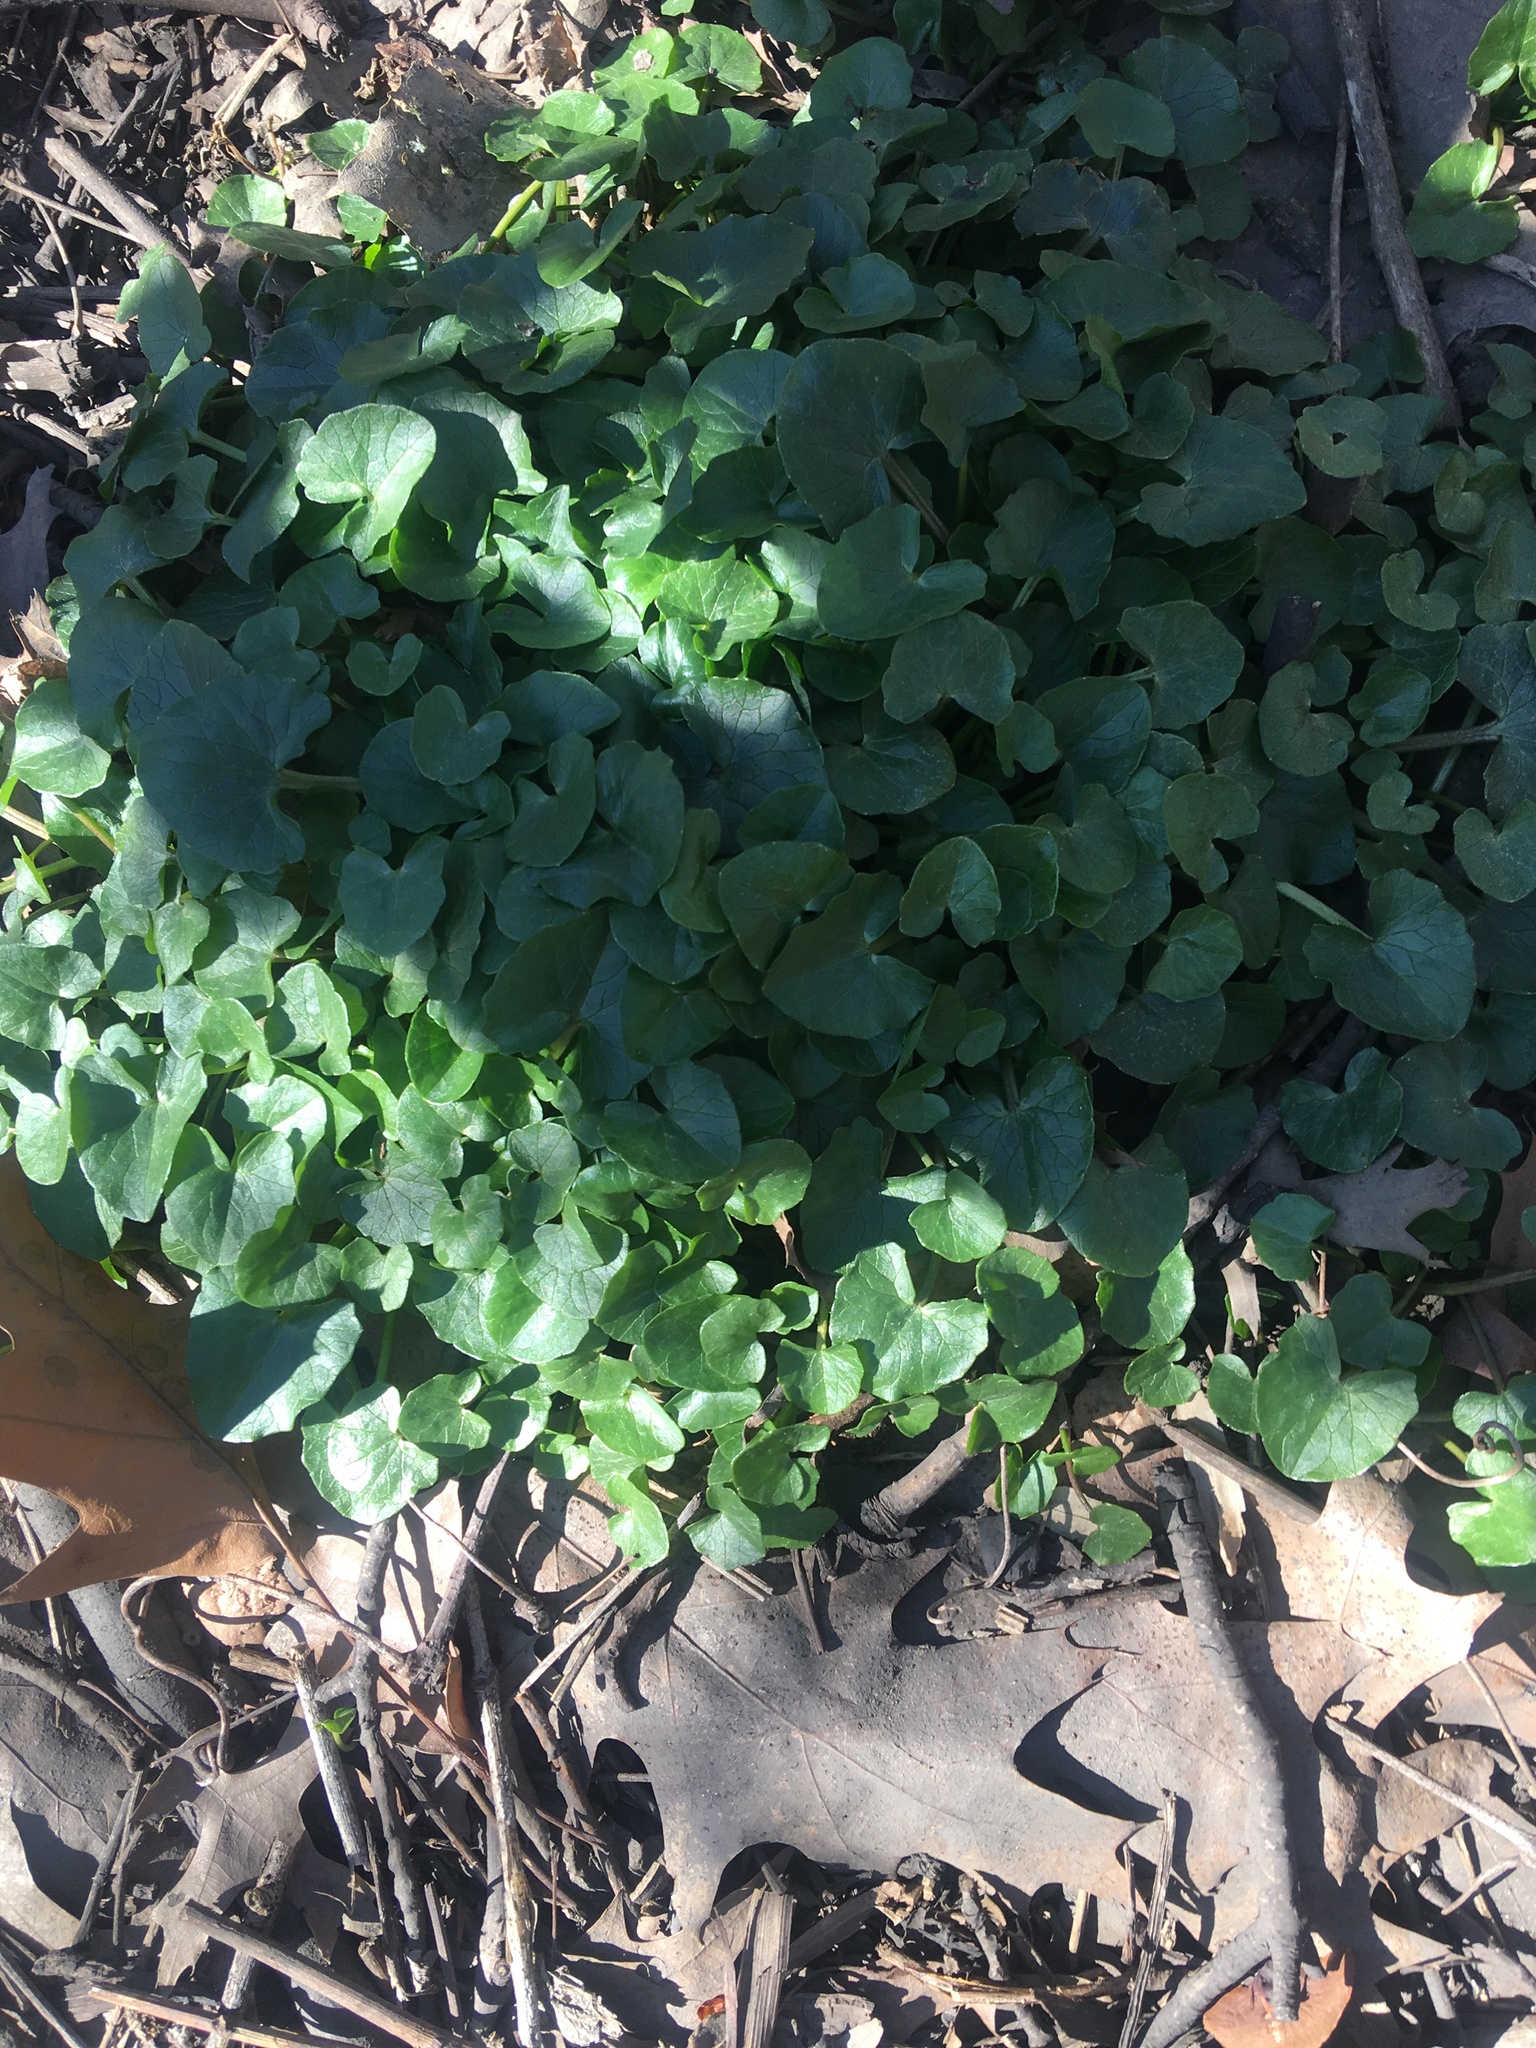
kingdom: Plantae
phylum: Tracheophyta
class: Magnoliopsida
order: Ranunculales
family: Ranunculaceae
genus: Ficaria
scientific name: Ficaria verna
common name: Lesser celandine
